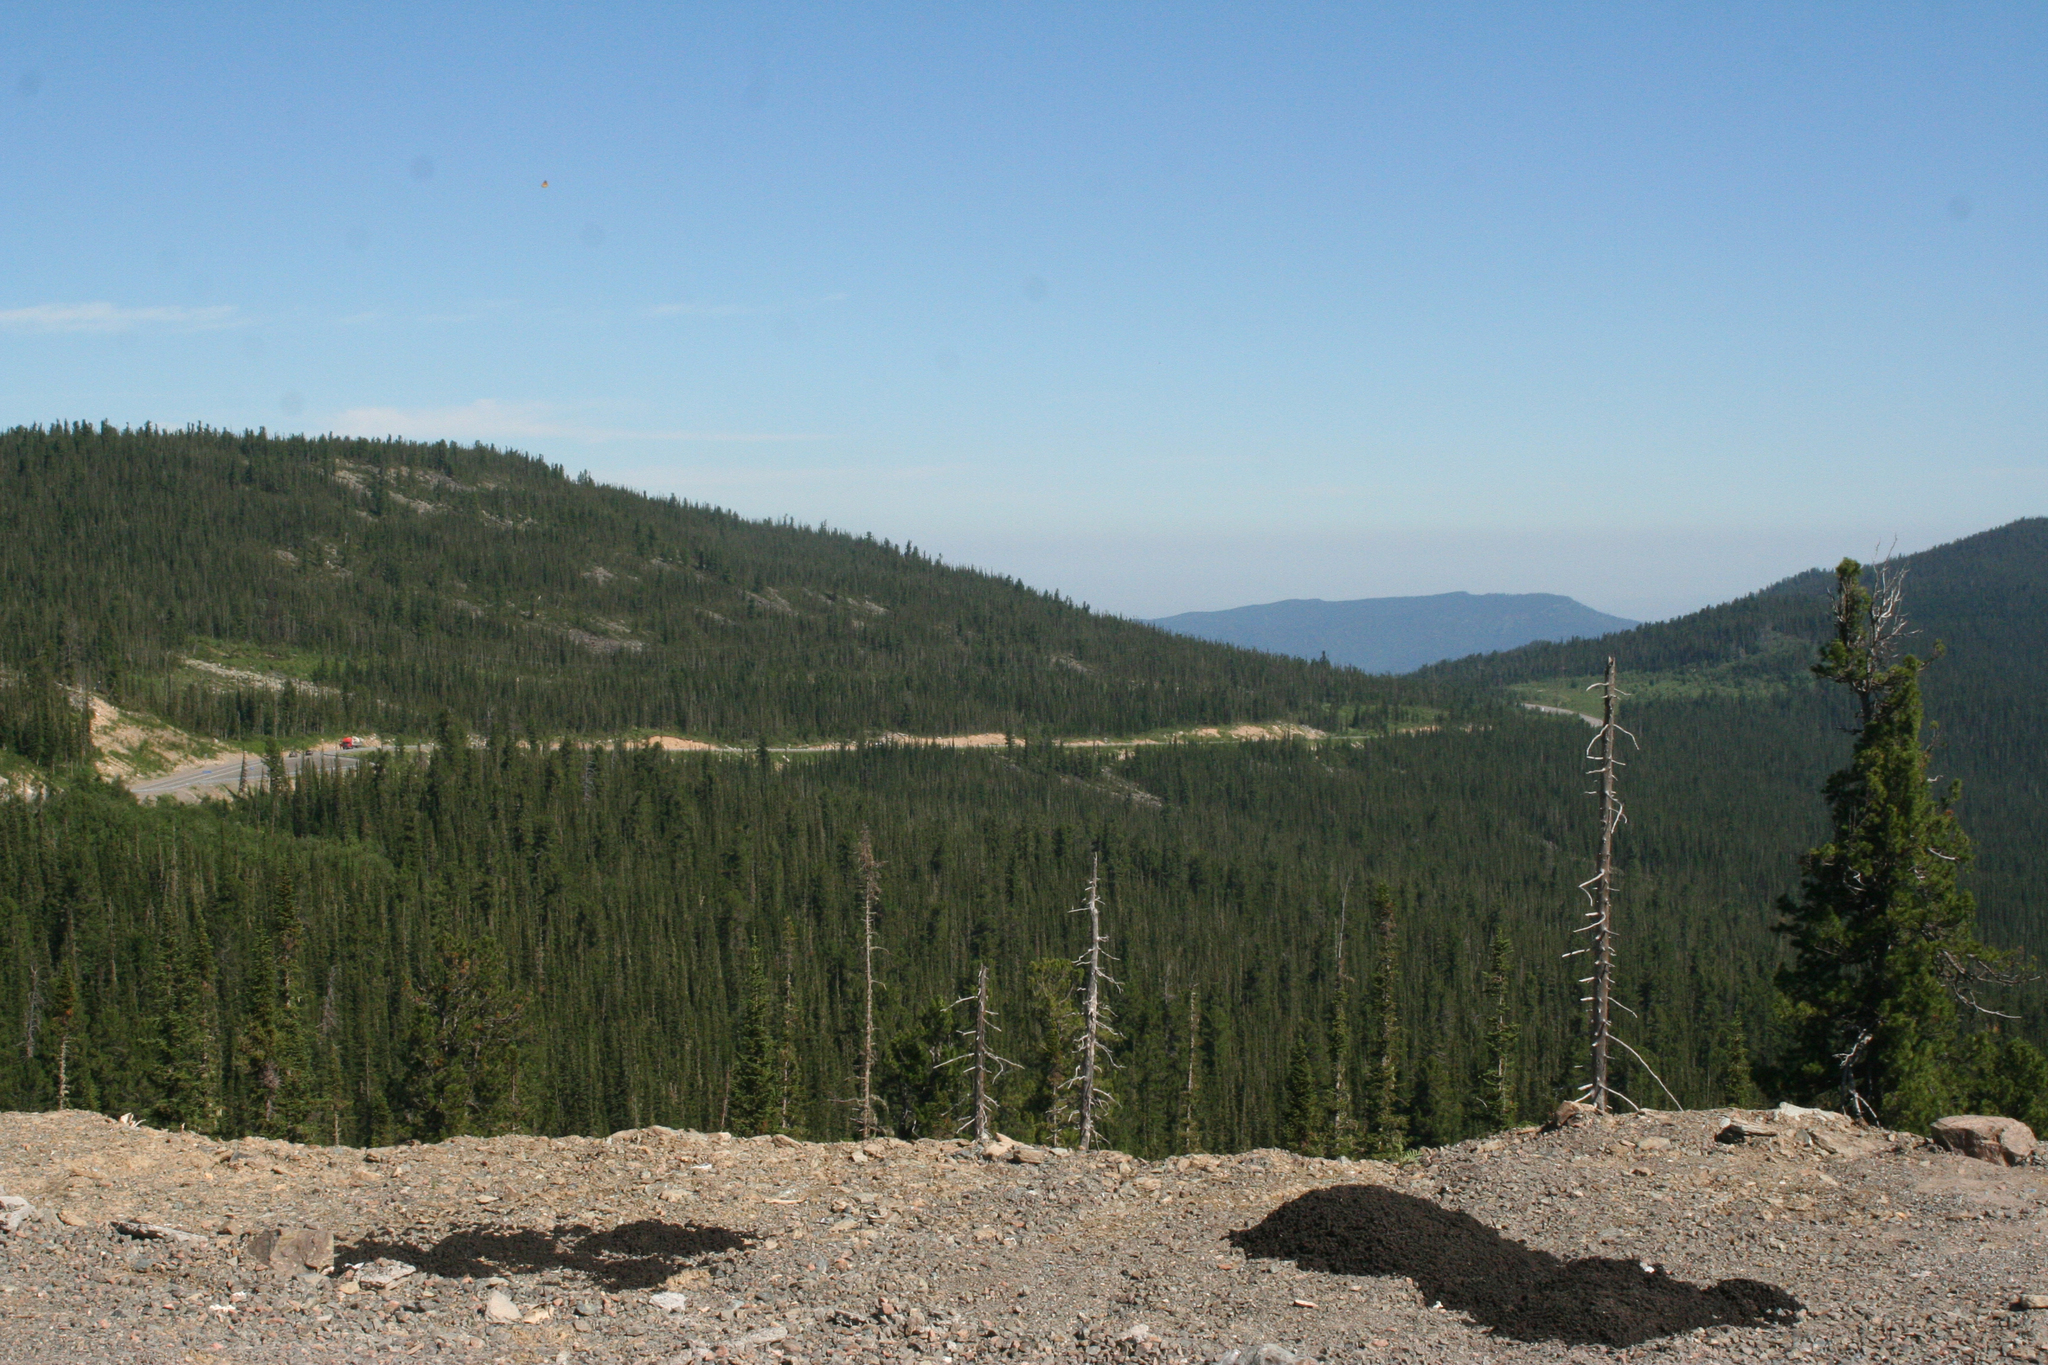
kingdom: Plantae
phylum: Tracheophyta
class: Pinopsida
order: Pinales
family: Pinaceae
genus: Abies
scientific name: Abies sibirica
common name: Siberian fir
